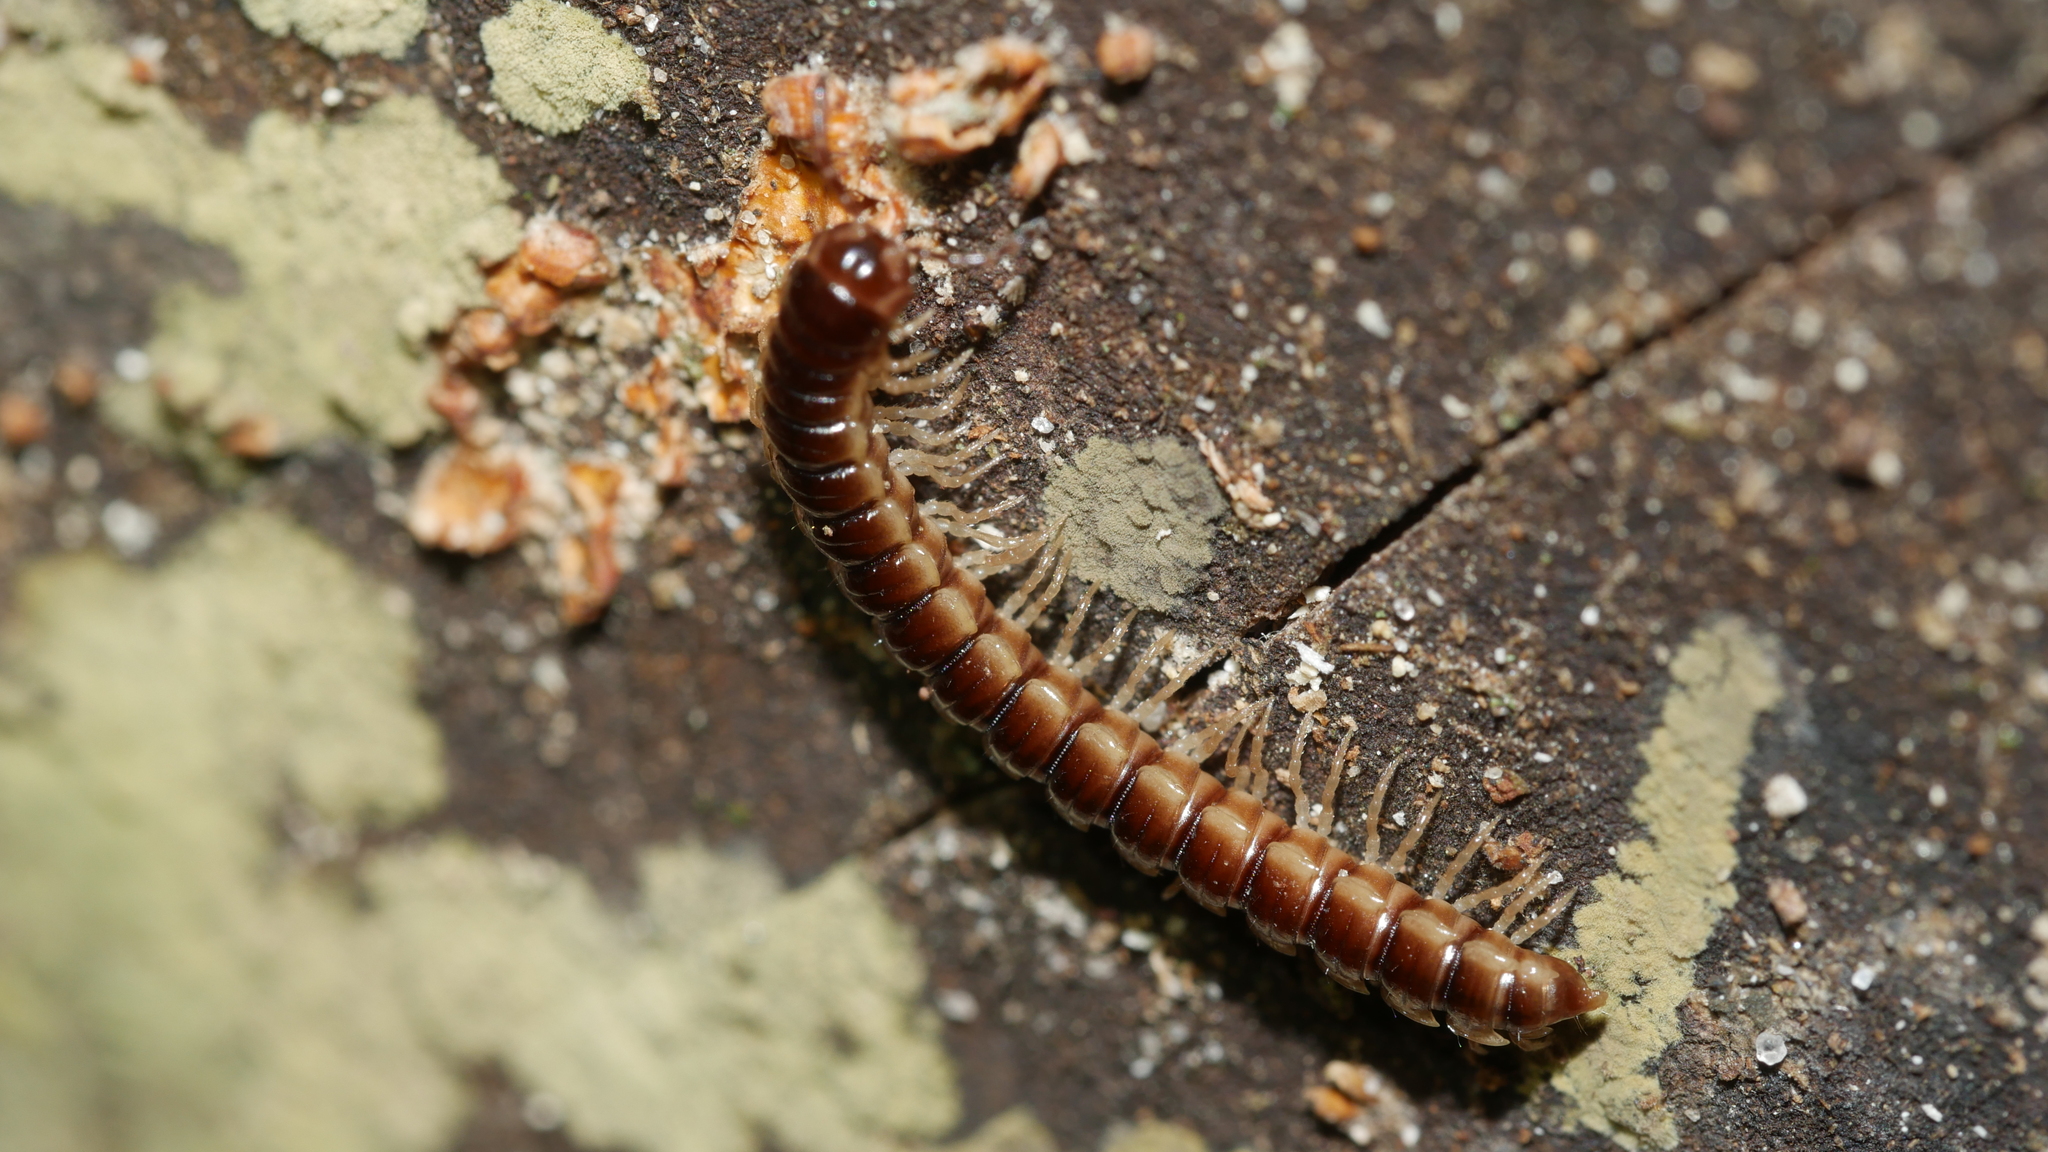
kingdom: Animalia
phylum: Arthropoda
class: Diplopoda
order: Polydesmida
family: Paradoxosomatidae
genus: Oxidus
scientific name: Oxidus gracilis
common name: Greenhouse millipede
